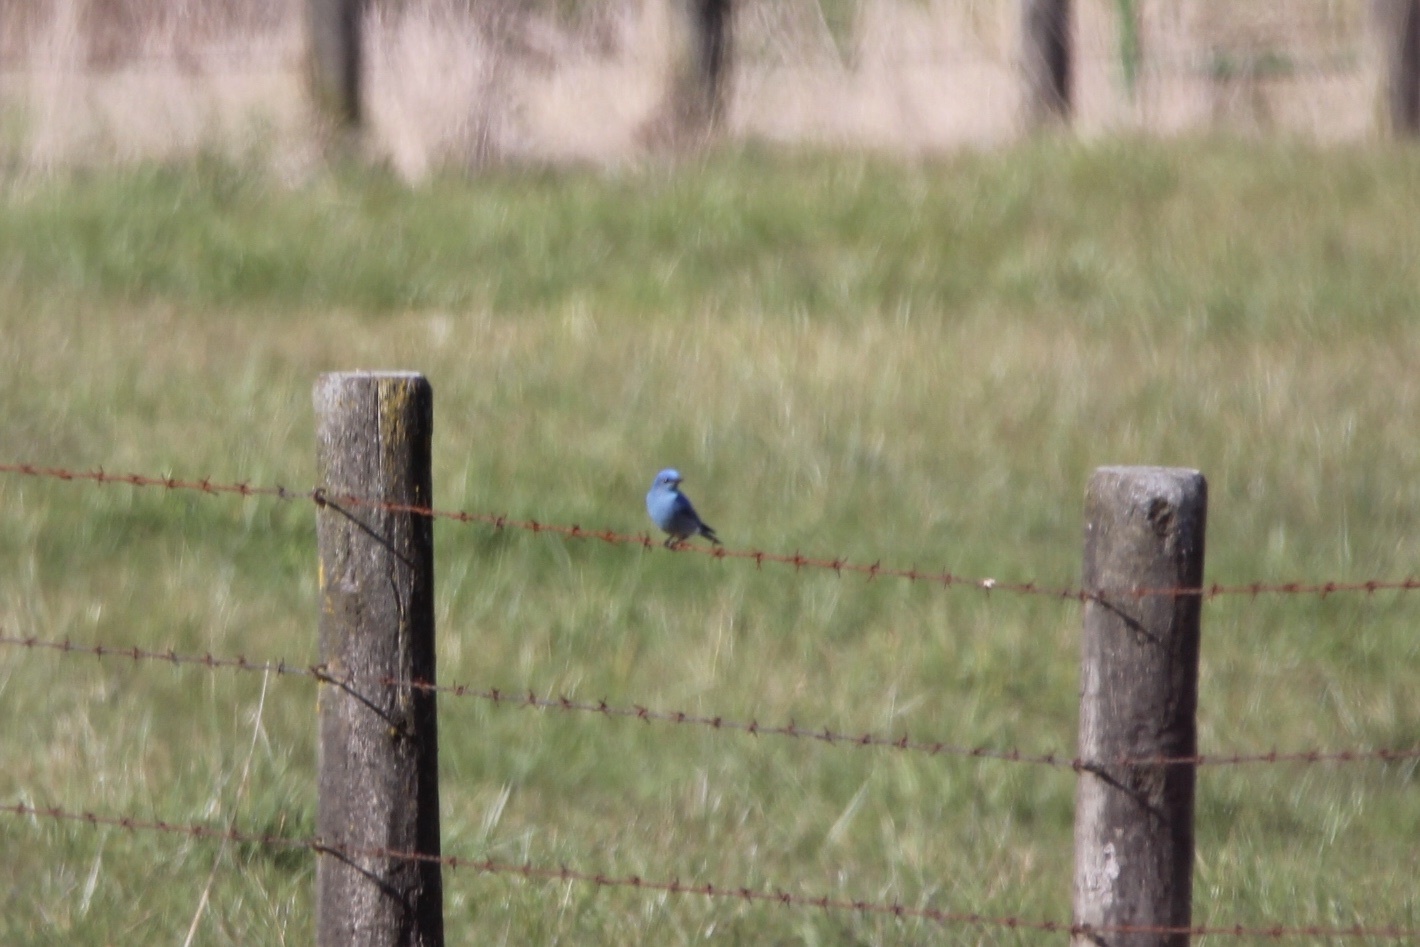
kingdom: Animalia
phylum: Chordata
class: Aves
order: Passeriformes
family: Turdidae
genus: Sialia
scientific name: Sialia currucoides
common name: Mountain bluebird
